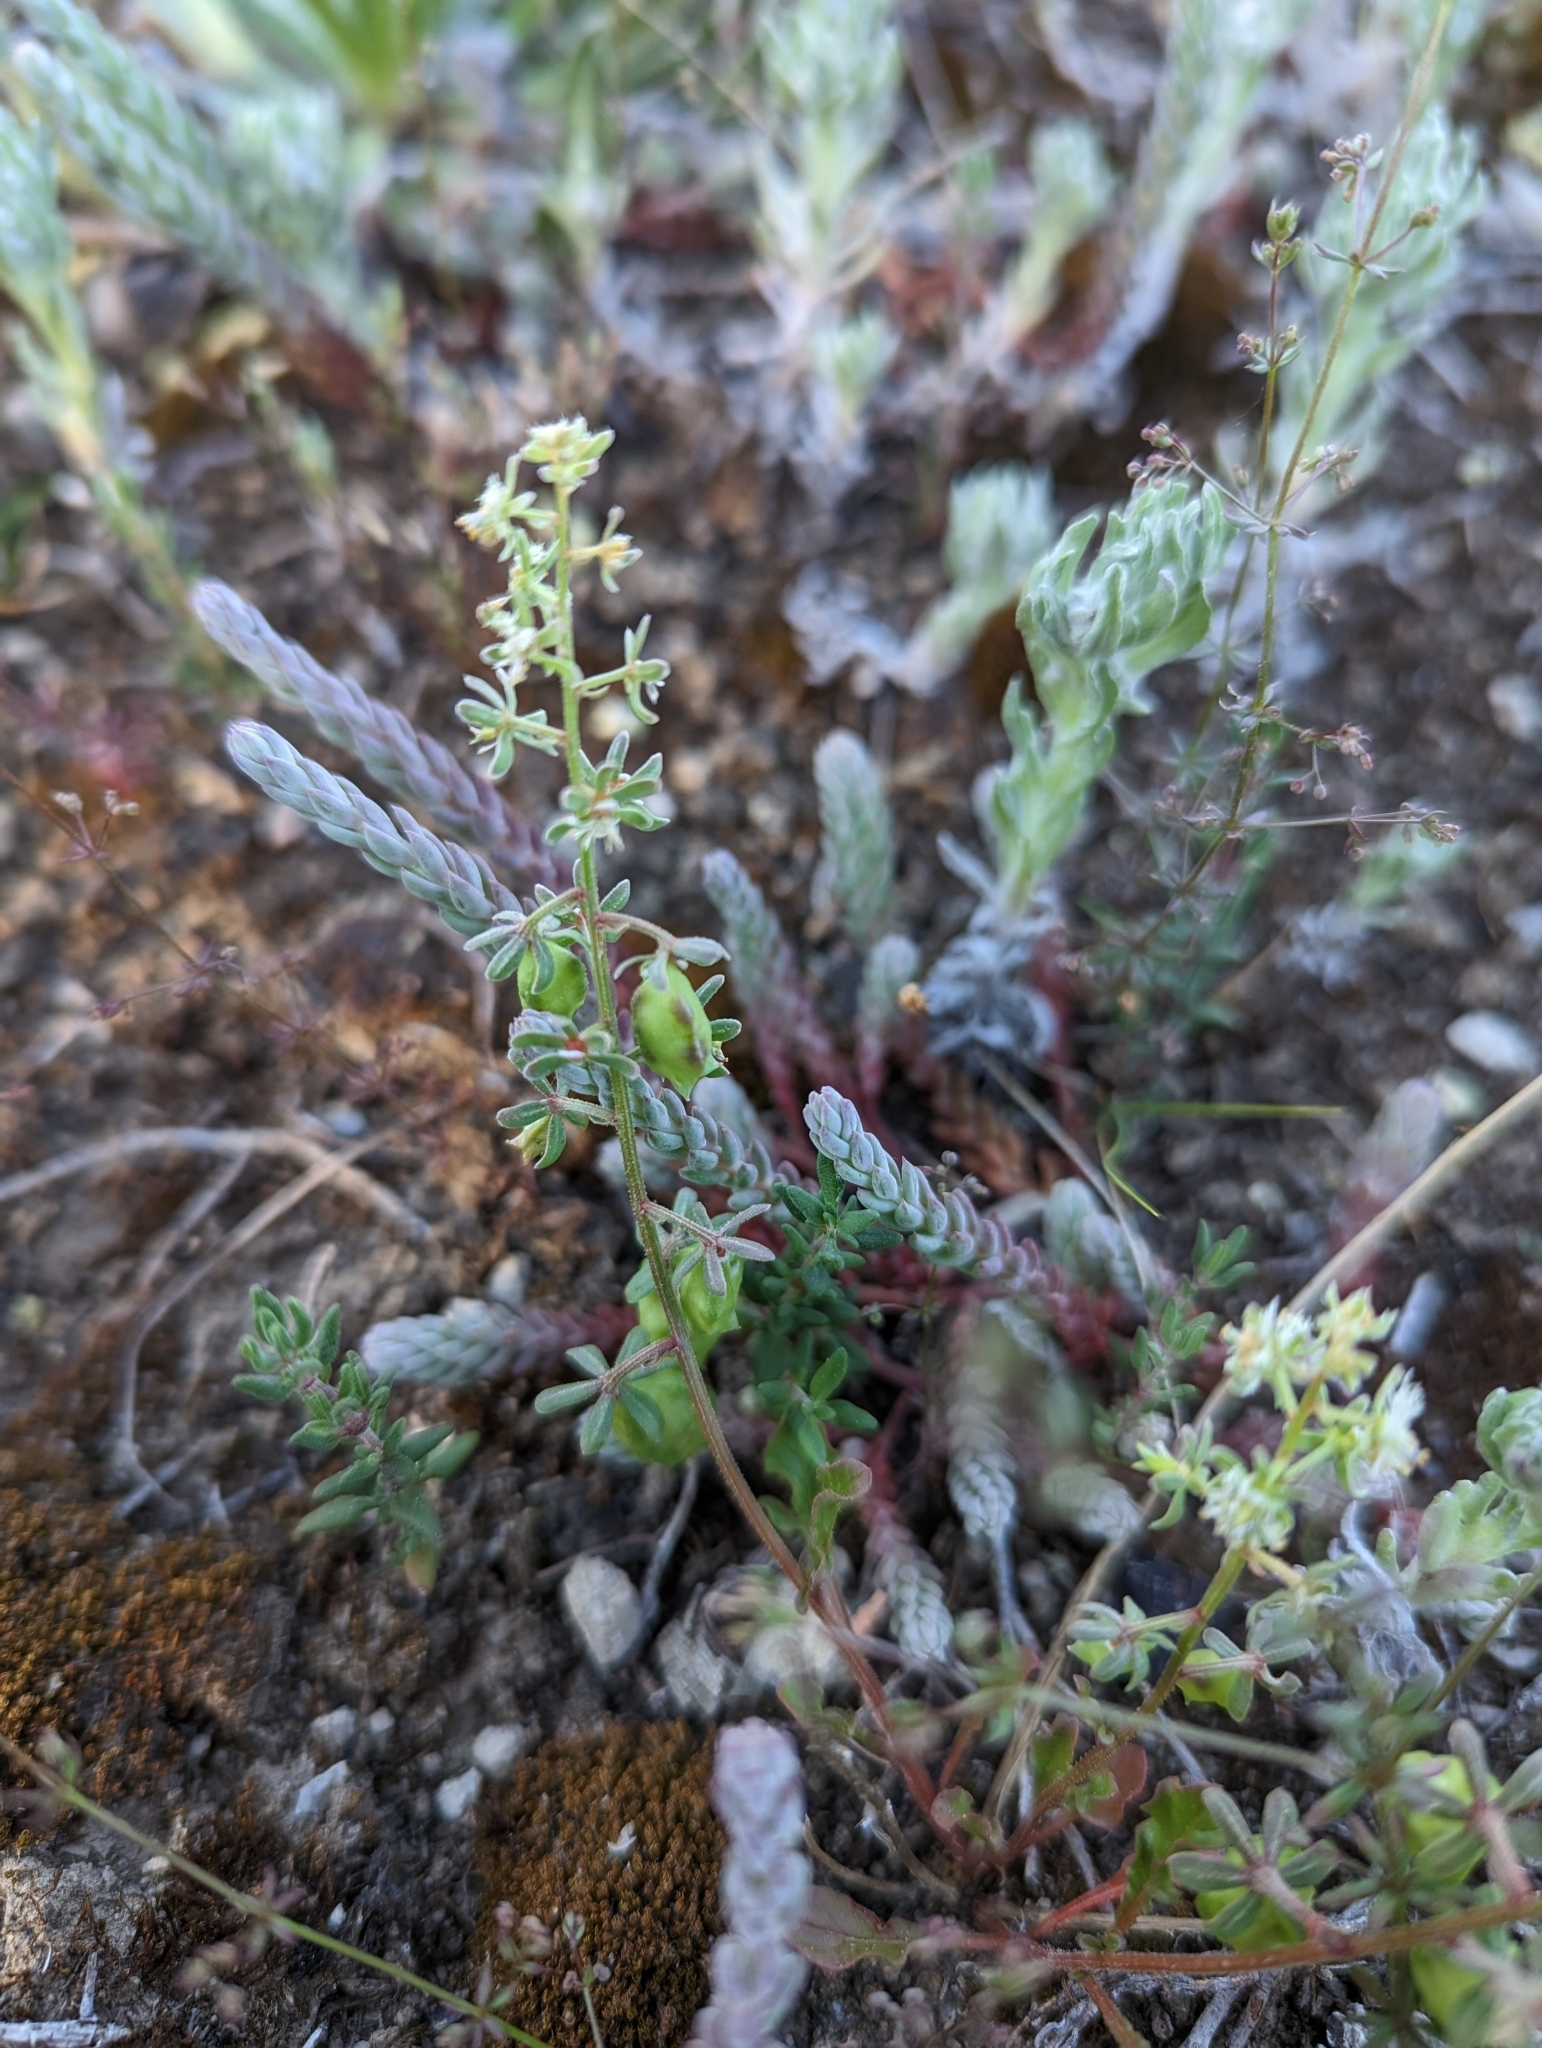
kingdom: Plantae
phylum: Tracheophyta
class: Magnoliopsida
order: Brassicales
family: Resedaceae
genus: Reseda
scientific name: Reseda phyteuma
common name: Corn mignonette
